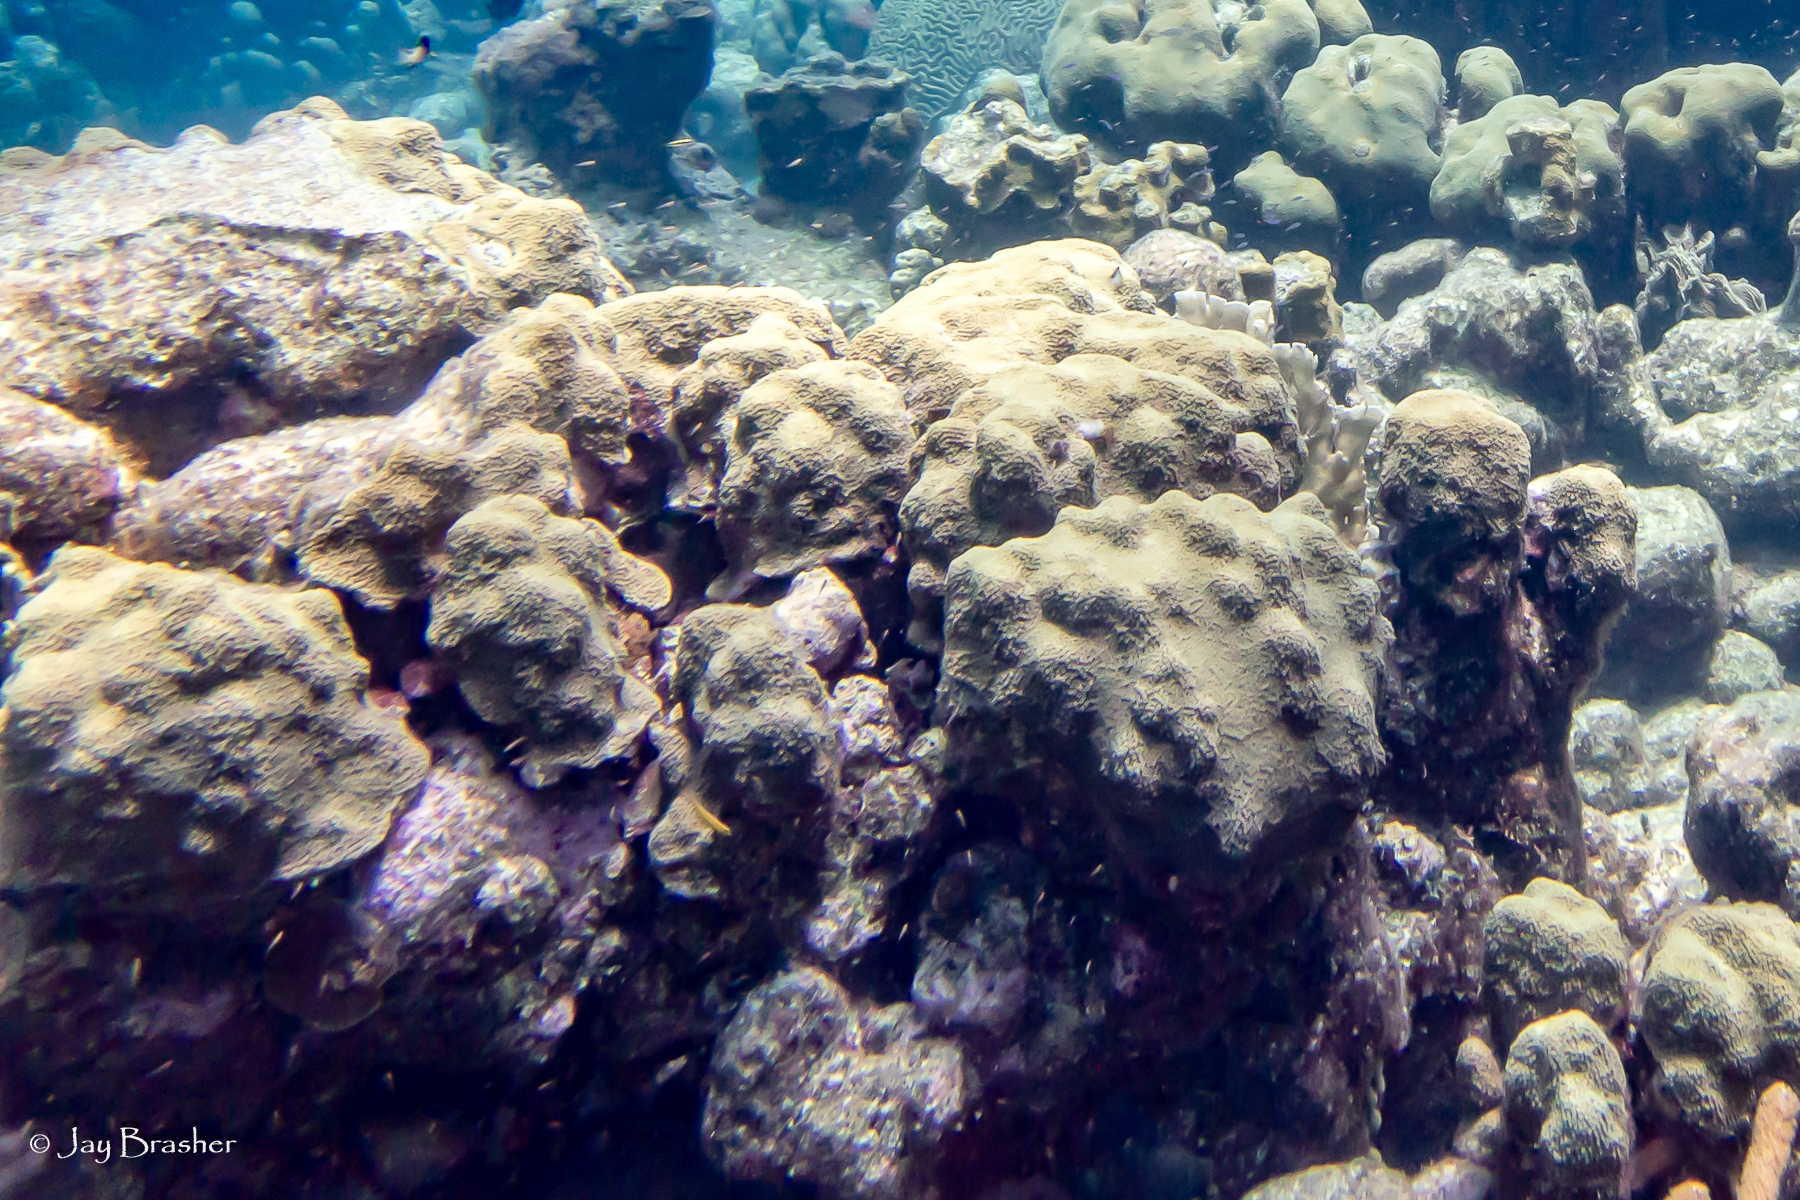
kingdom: Animalia
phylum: Cnidaria
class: Anthozoa
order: Scleractinia
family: Merulinidae
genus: Orbicella
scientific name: Orbicella faveolata
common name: Mountainous star coral
